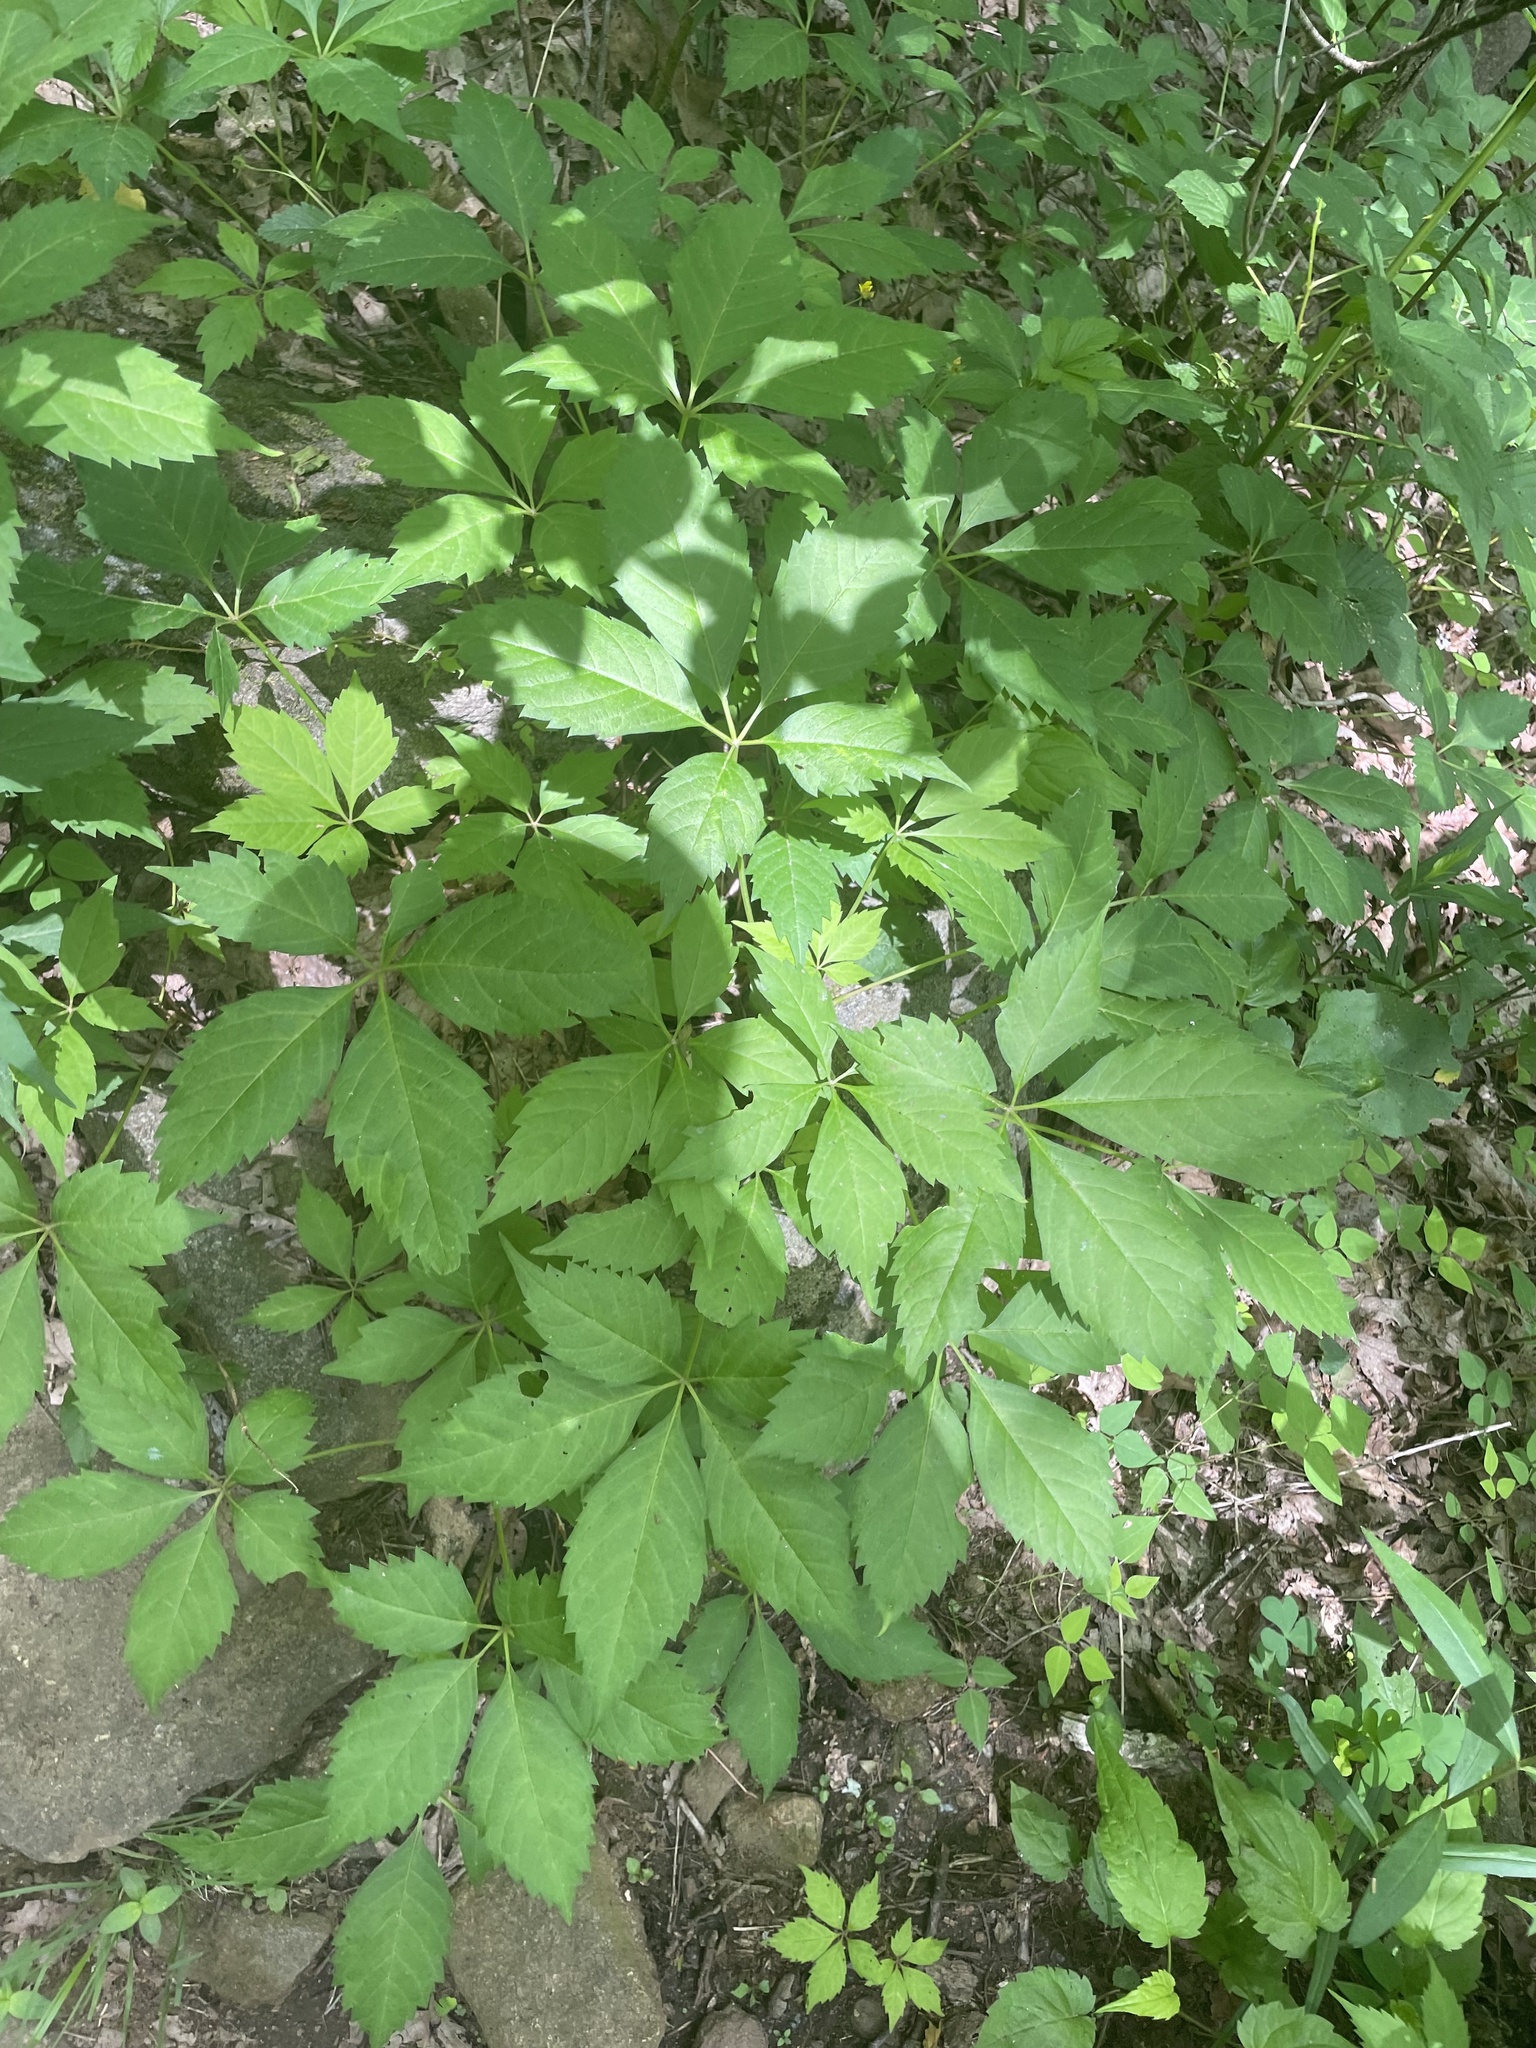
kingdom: Plantae
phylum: Tracheophyta
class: Magnoliopsida
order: Vitales
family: Vitaceae
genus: Parthenocissus
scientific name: Parthenocissus quinquefolia
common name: Virginia-creeper
